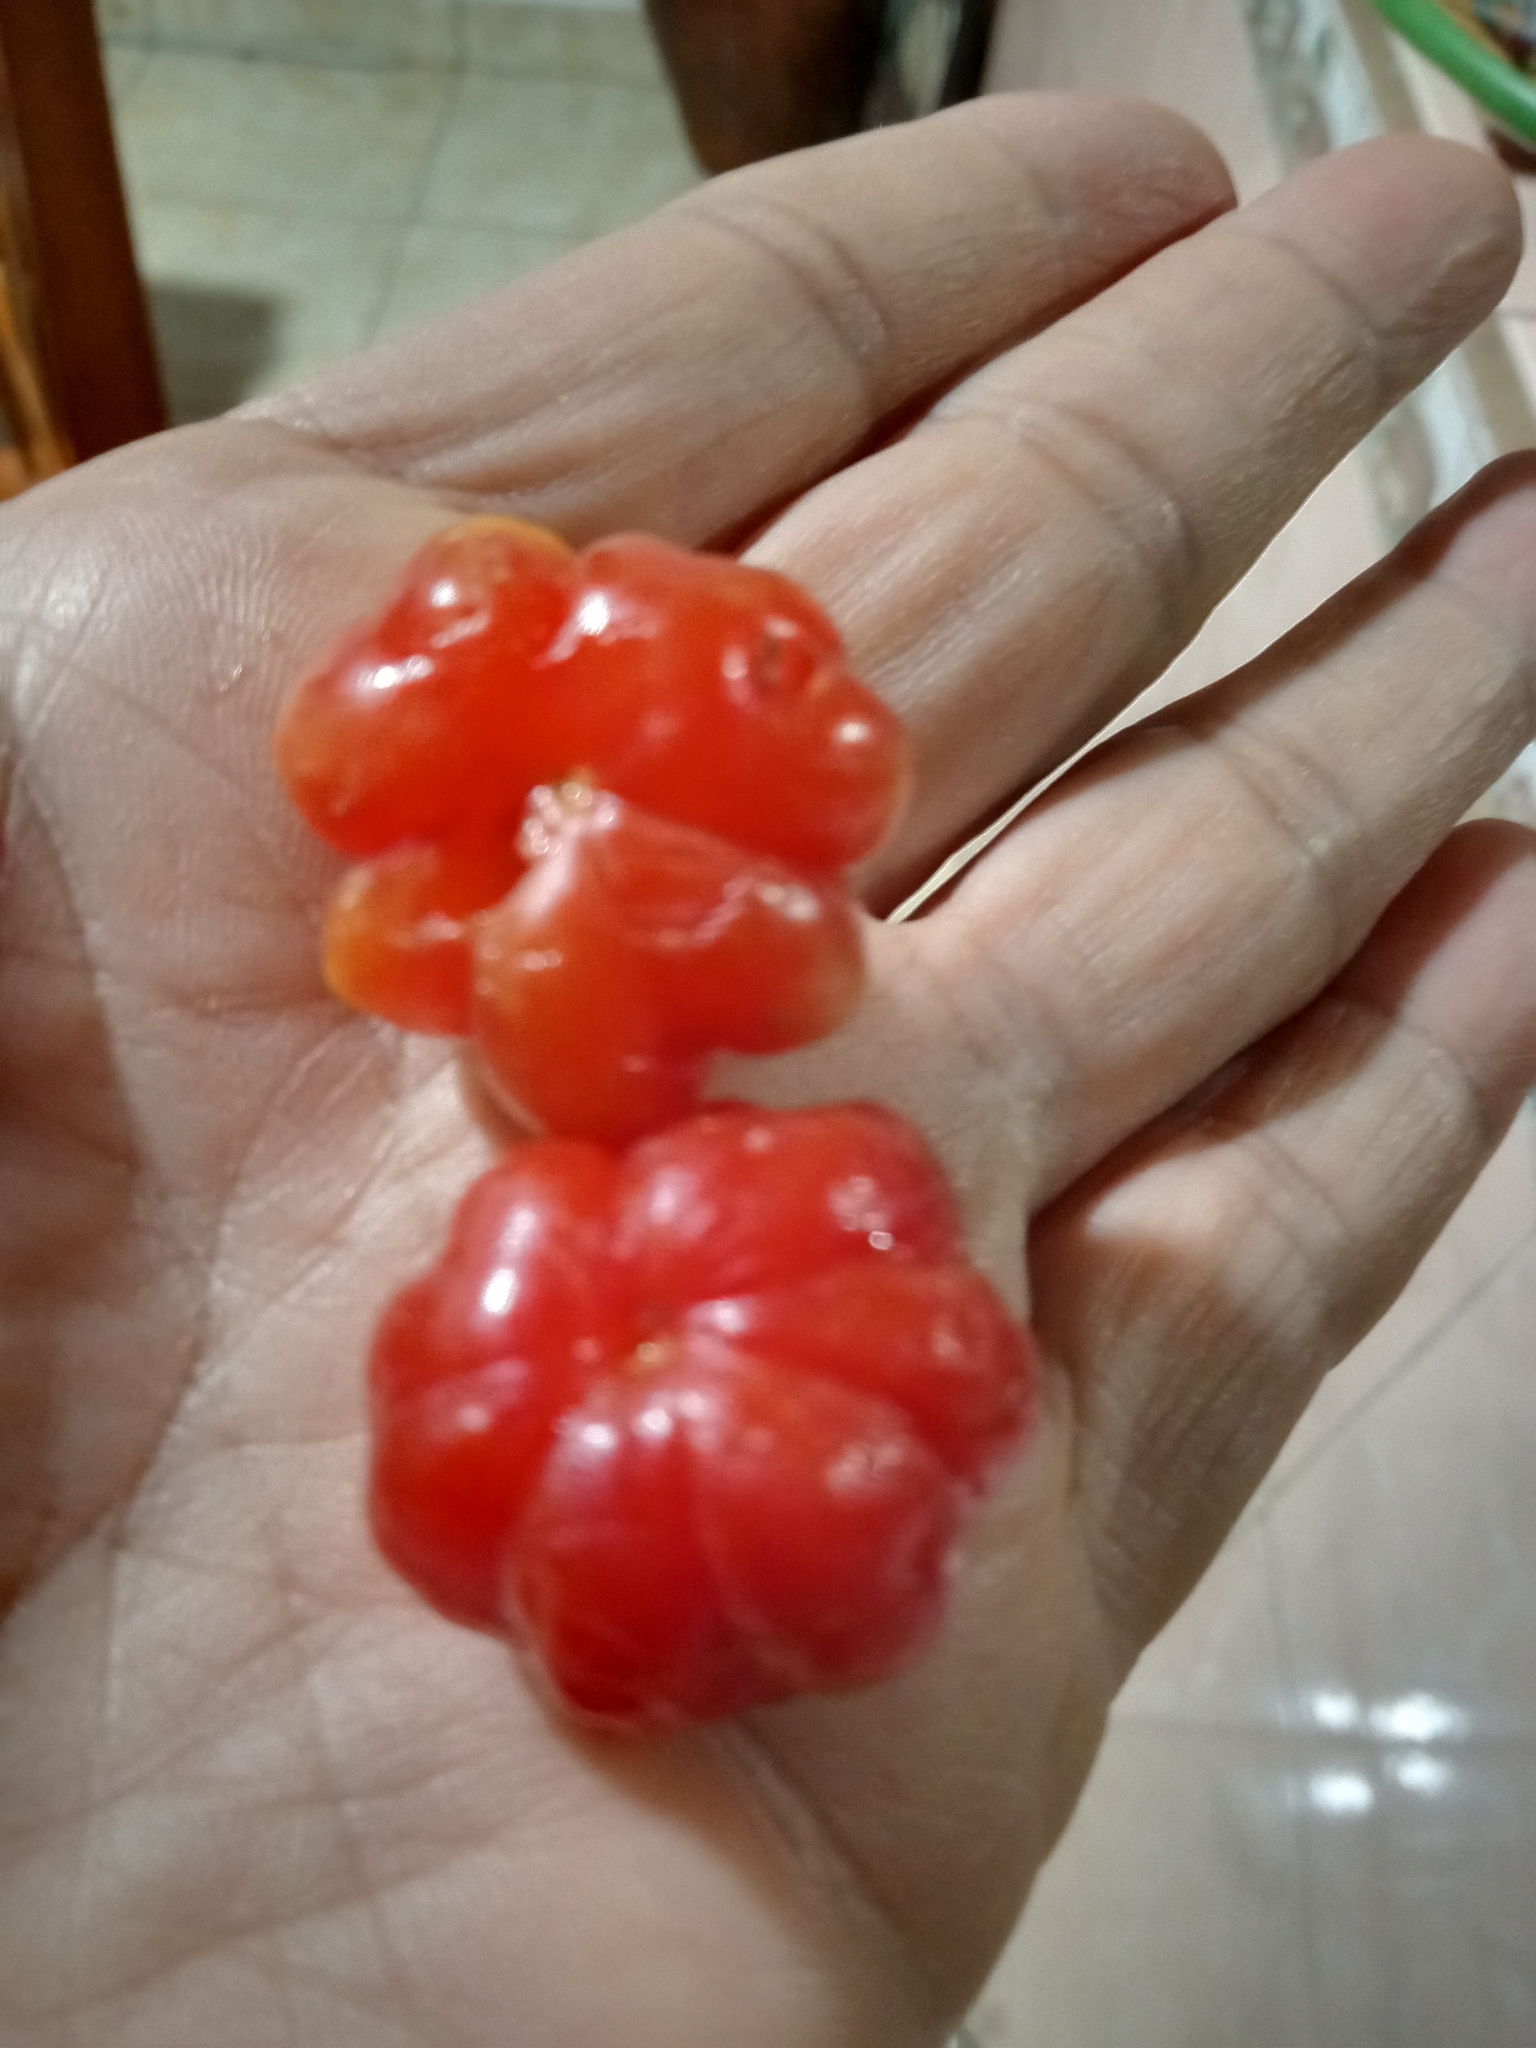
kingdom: Plantae
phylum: Tracheophyta
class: Magnoliopsida
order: Myrtales
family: Myrtaceae
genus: Eugenia
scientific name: Eugenia uniflora
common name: Surinam cherry
